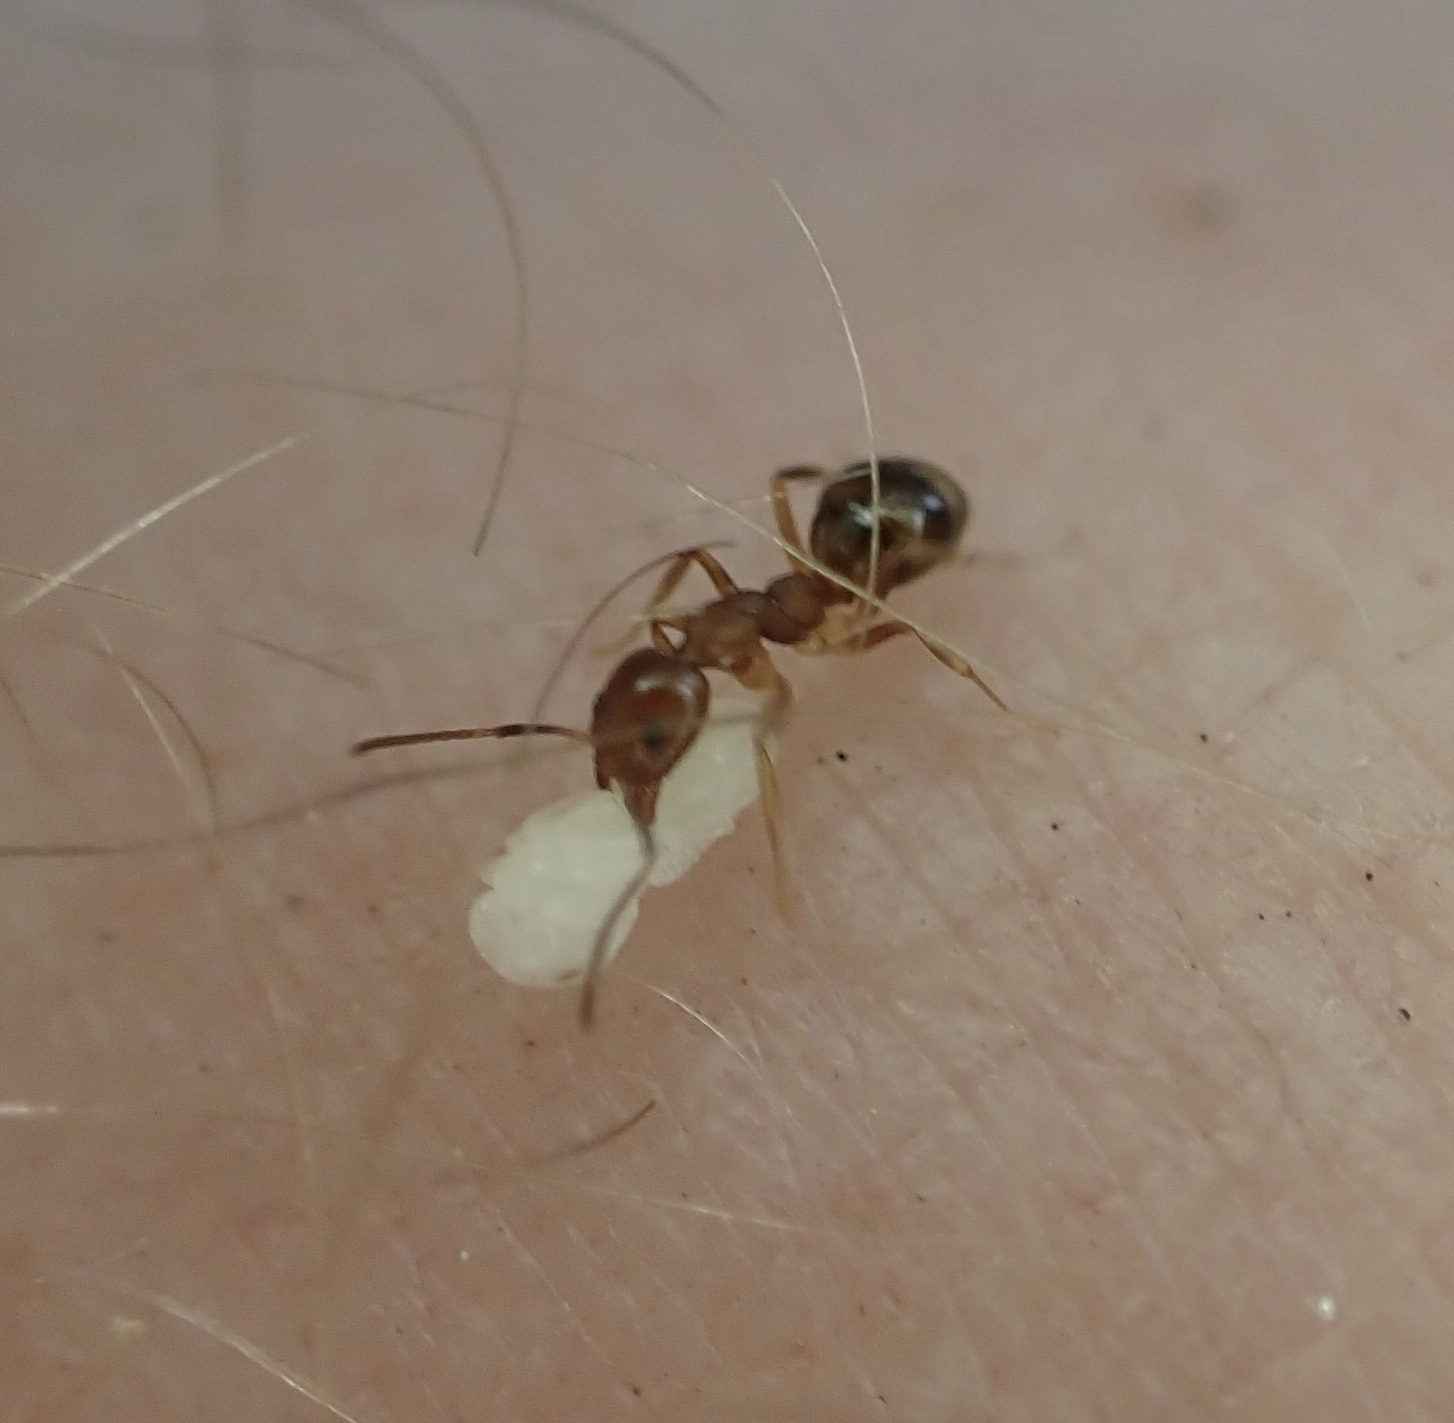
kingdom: Animalia
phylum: Arthropoda
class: Insecta
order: Hymenoptera
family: Formicidae
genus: Dolichoderus
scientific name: Dolichoderus lutosus
